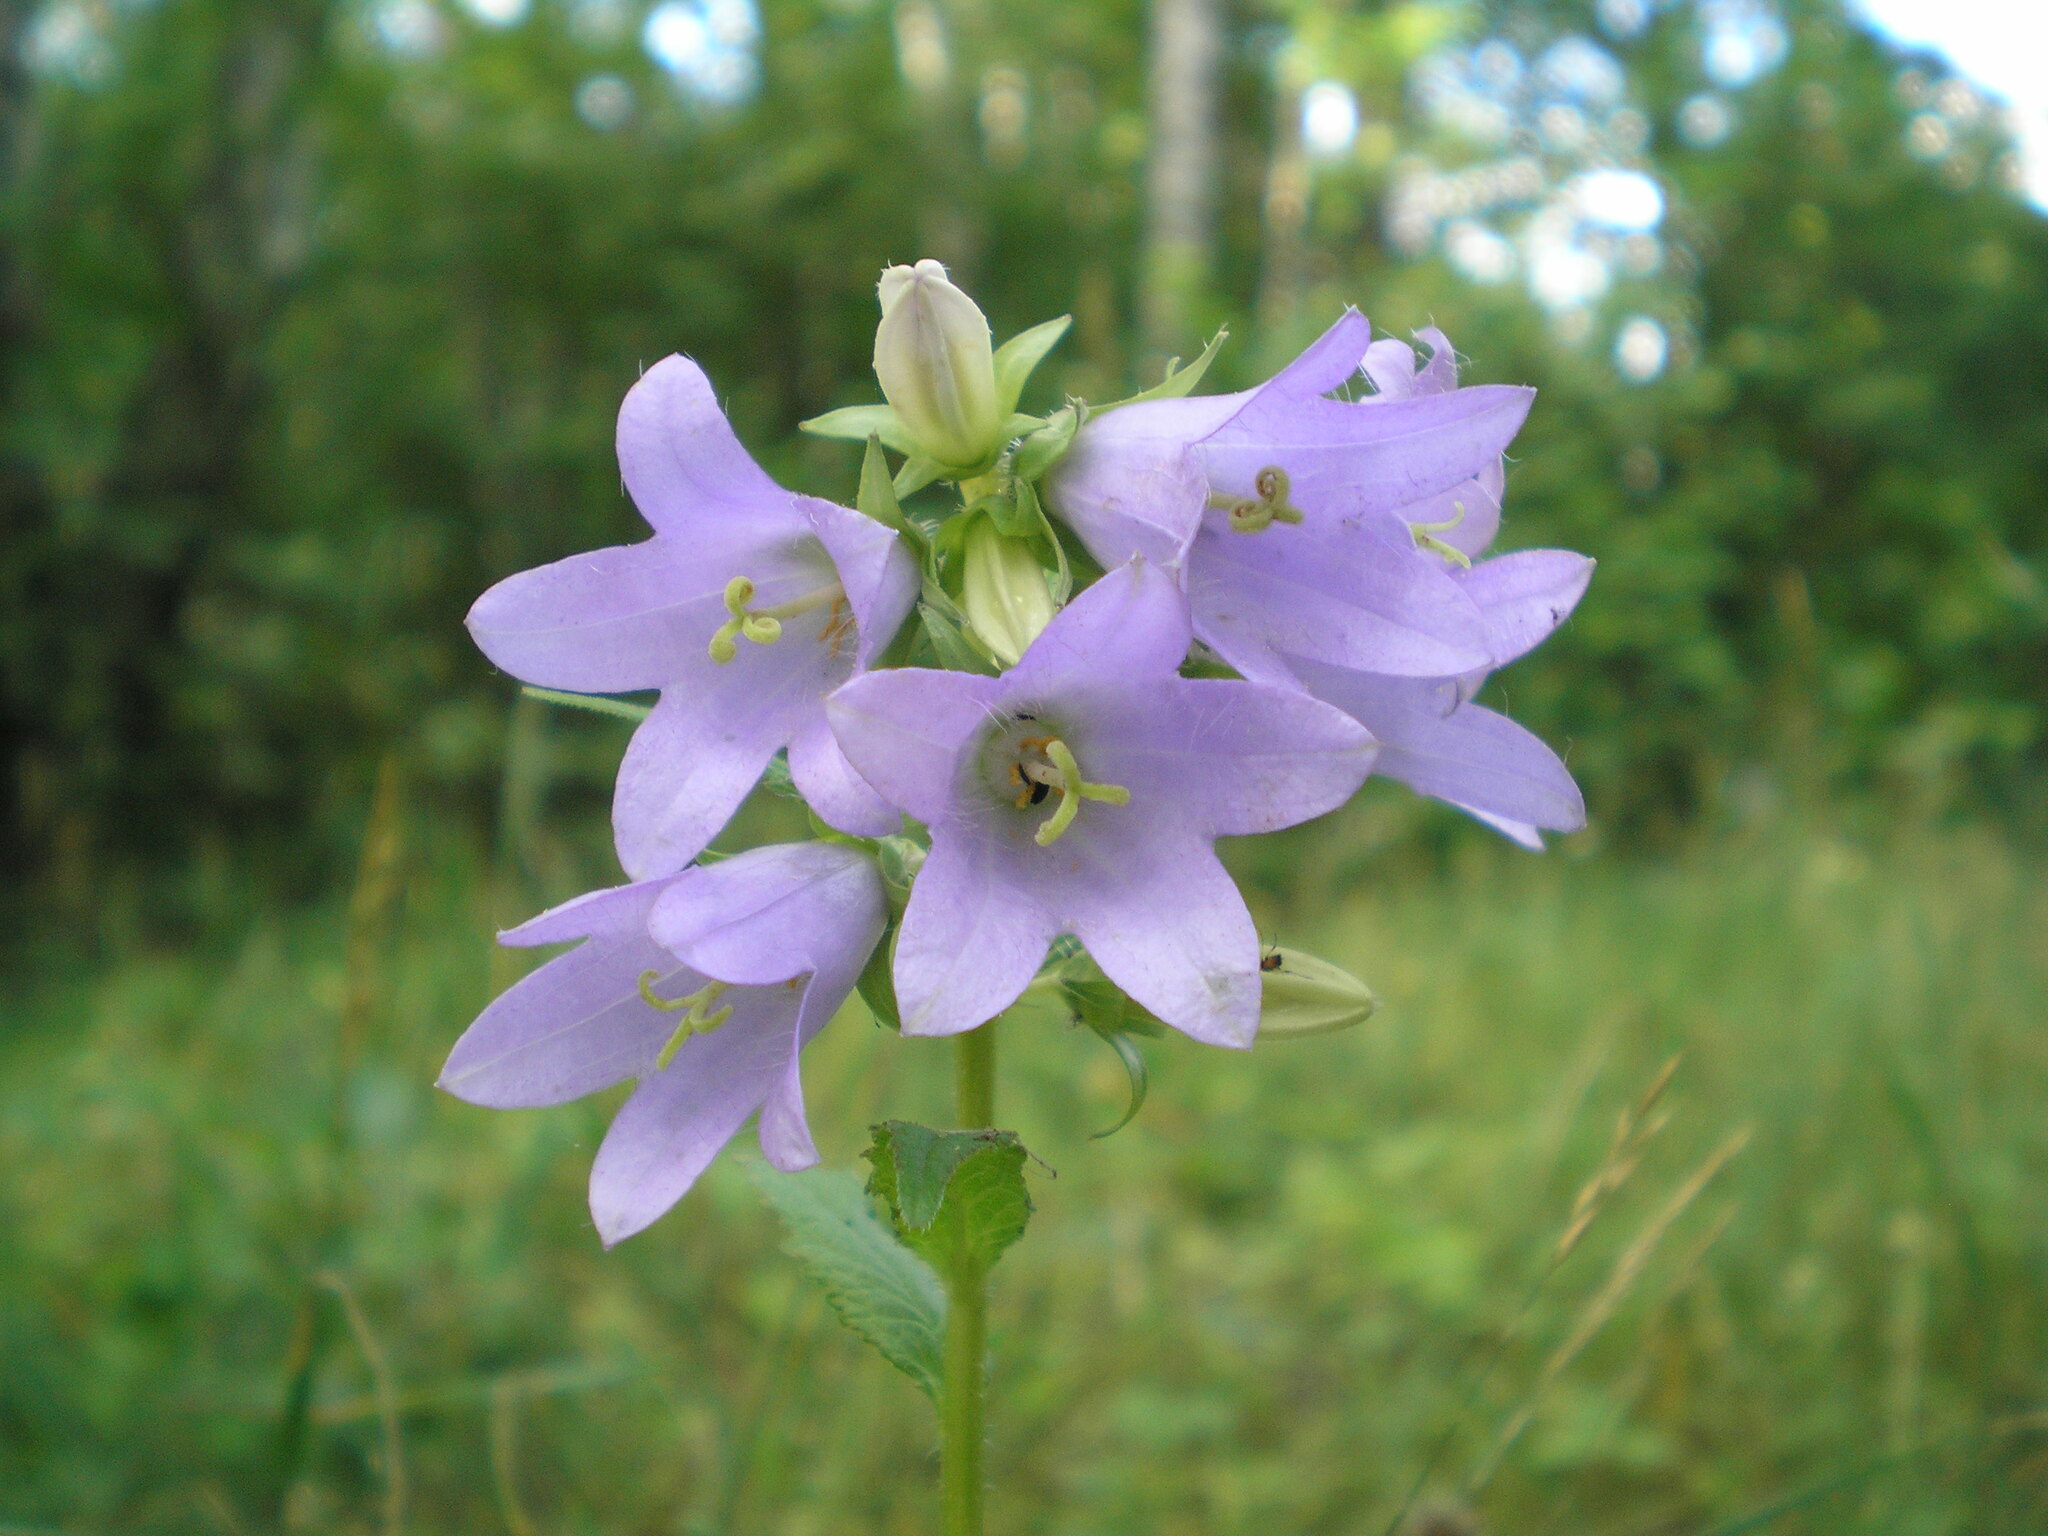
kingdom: Plantae
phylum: Tracheophyta
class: Magnoliopsida
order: Asterales
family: Campanulaceae
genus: Campanula
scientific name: Campanula trachelium
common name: Nettle-leaved bellflower
